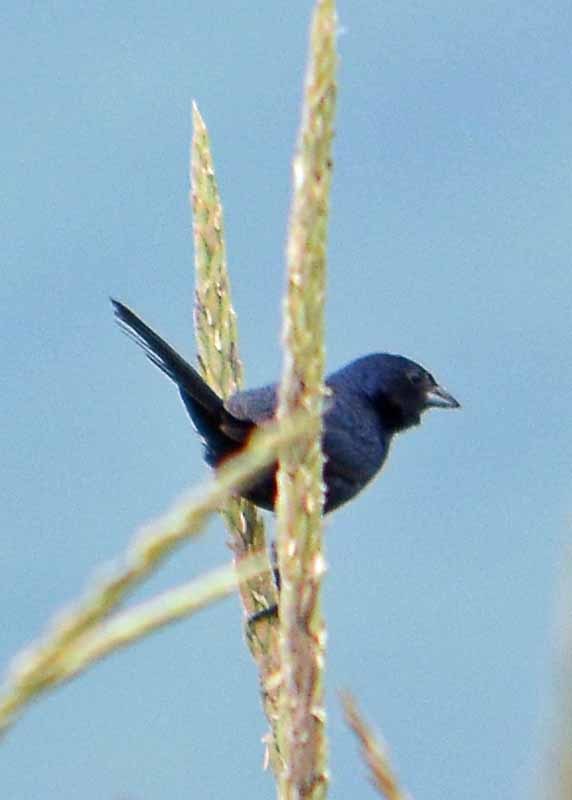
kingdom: Animalia
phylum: Chordata
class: Aves
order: Passeriformes
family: Thraupidae
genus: Volatinia
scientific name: Volatinia jacarina
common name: Blue-black grassquit
